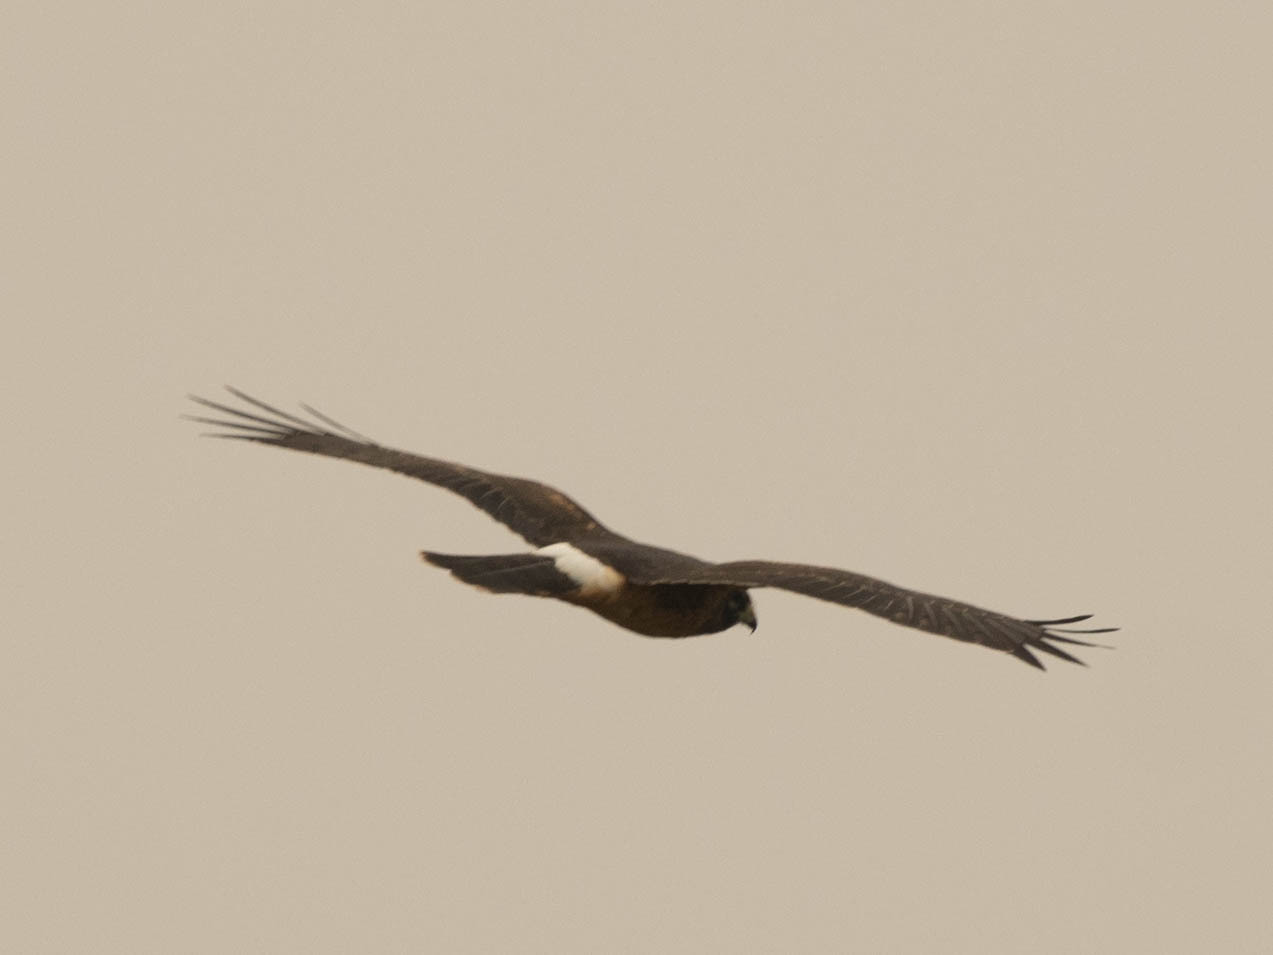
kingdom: Animalia
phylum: Chordata
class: Aves
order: Accipitriformes
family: Accipitridae
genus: Circus
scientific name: Circus cyaneus
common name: Hen harrier
